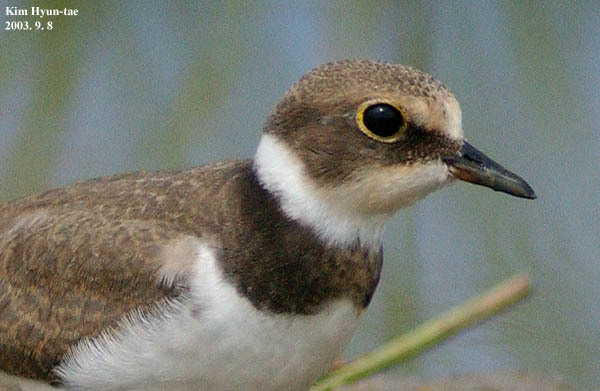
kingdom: Animalia
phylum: Chordata
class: Aves
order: Charadriiformes
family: Charadriidae
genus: Charadrius
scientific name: Charadrius dubius
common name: Little ringed plover
